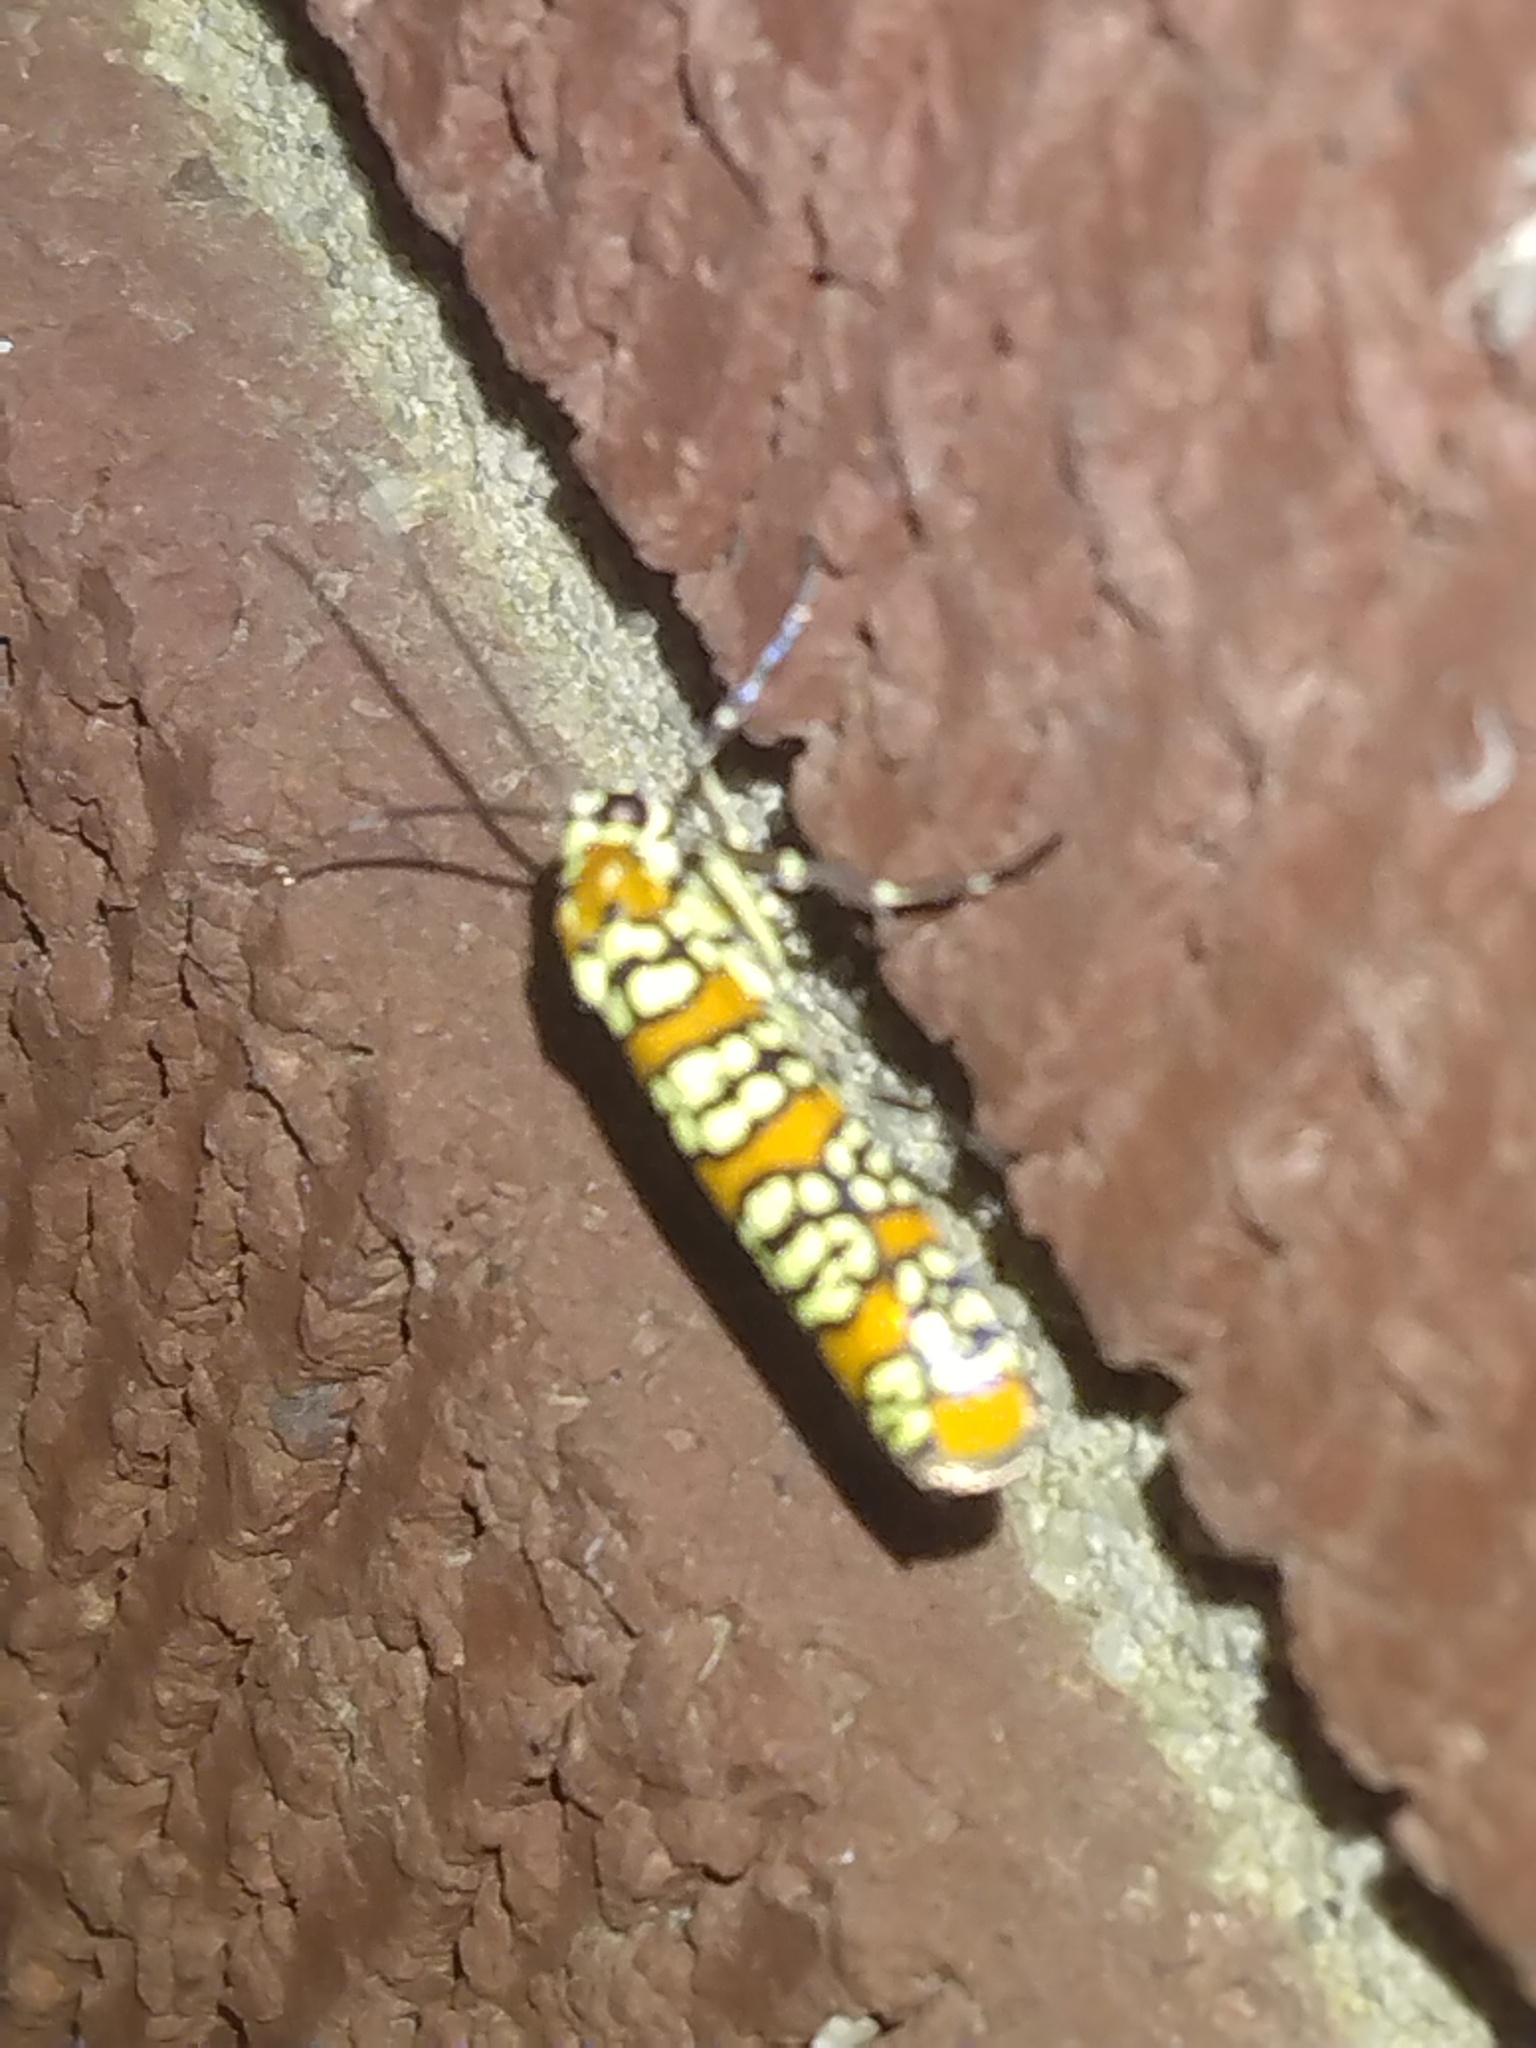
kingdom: Animalia
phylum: Arthropoda
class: Insecta
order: Lepidoptera
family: Attevidae
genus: Atteva
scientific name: Atteva punctella
